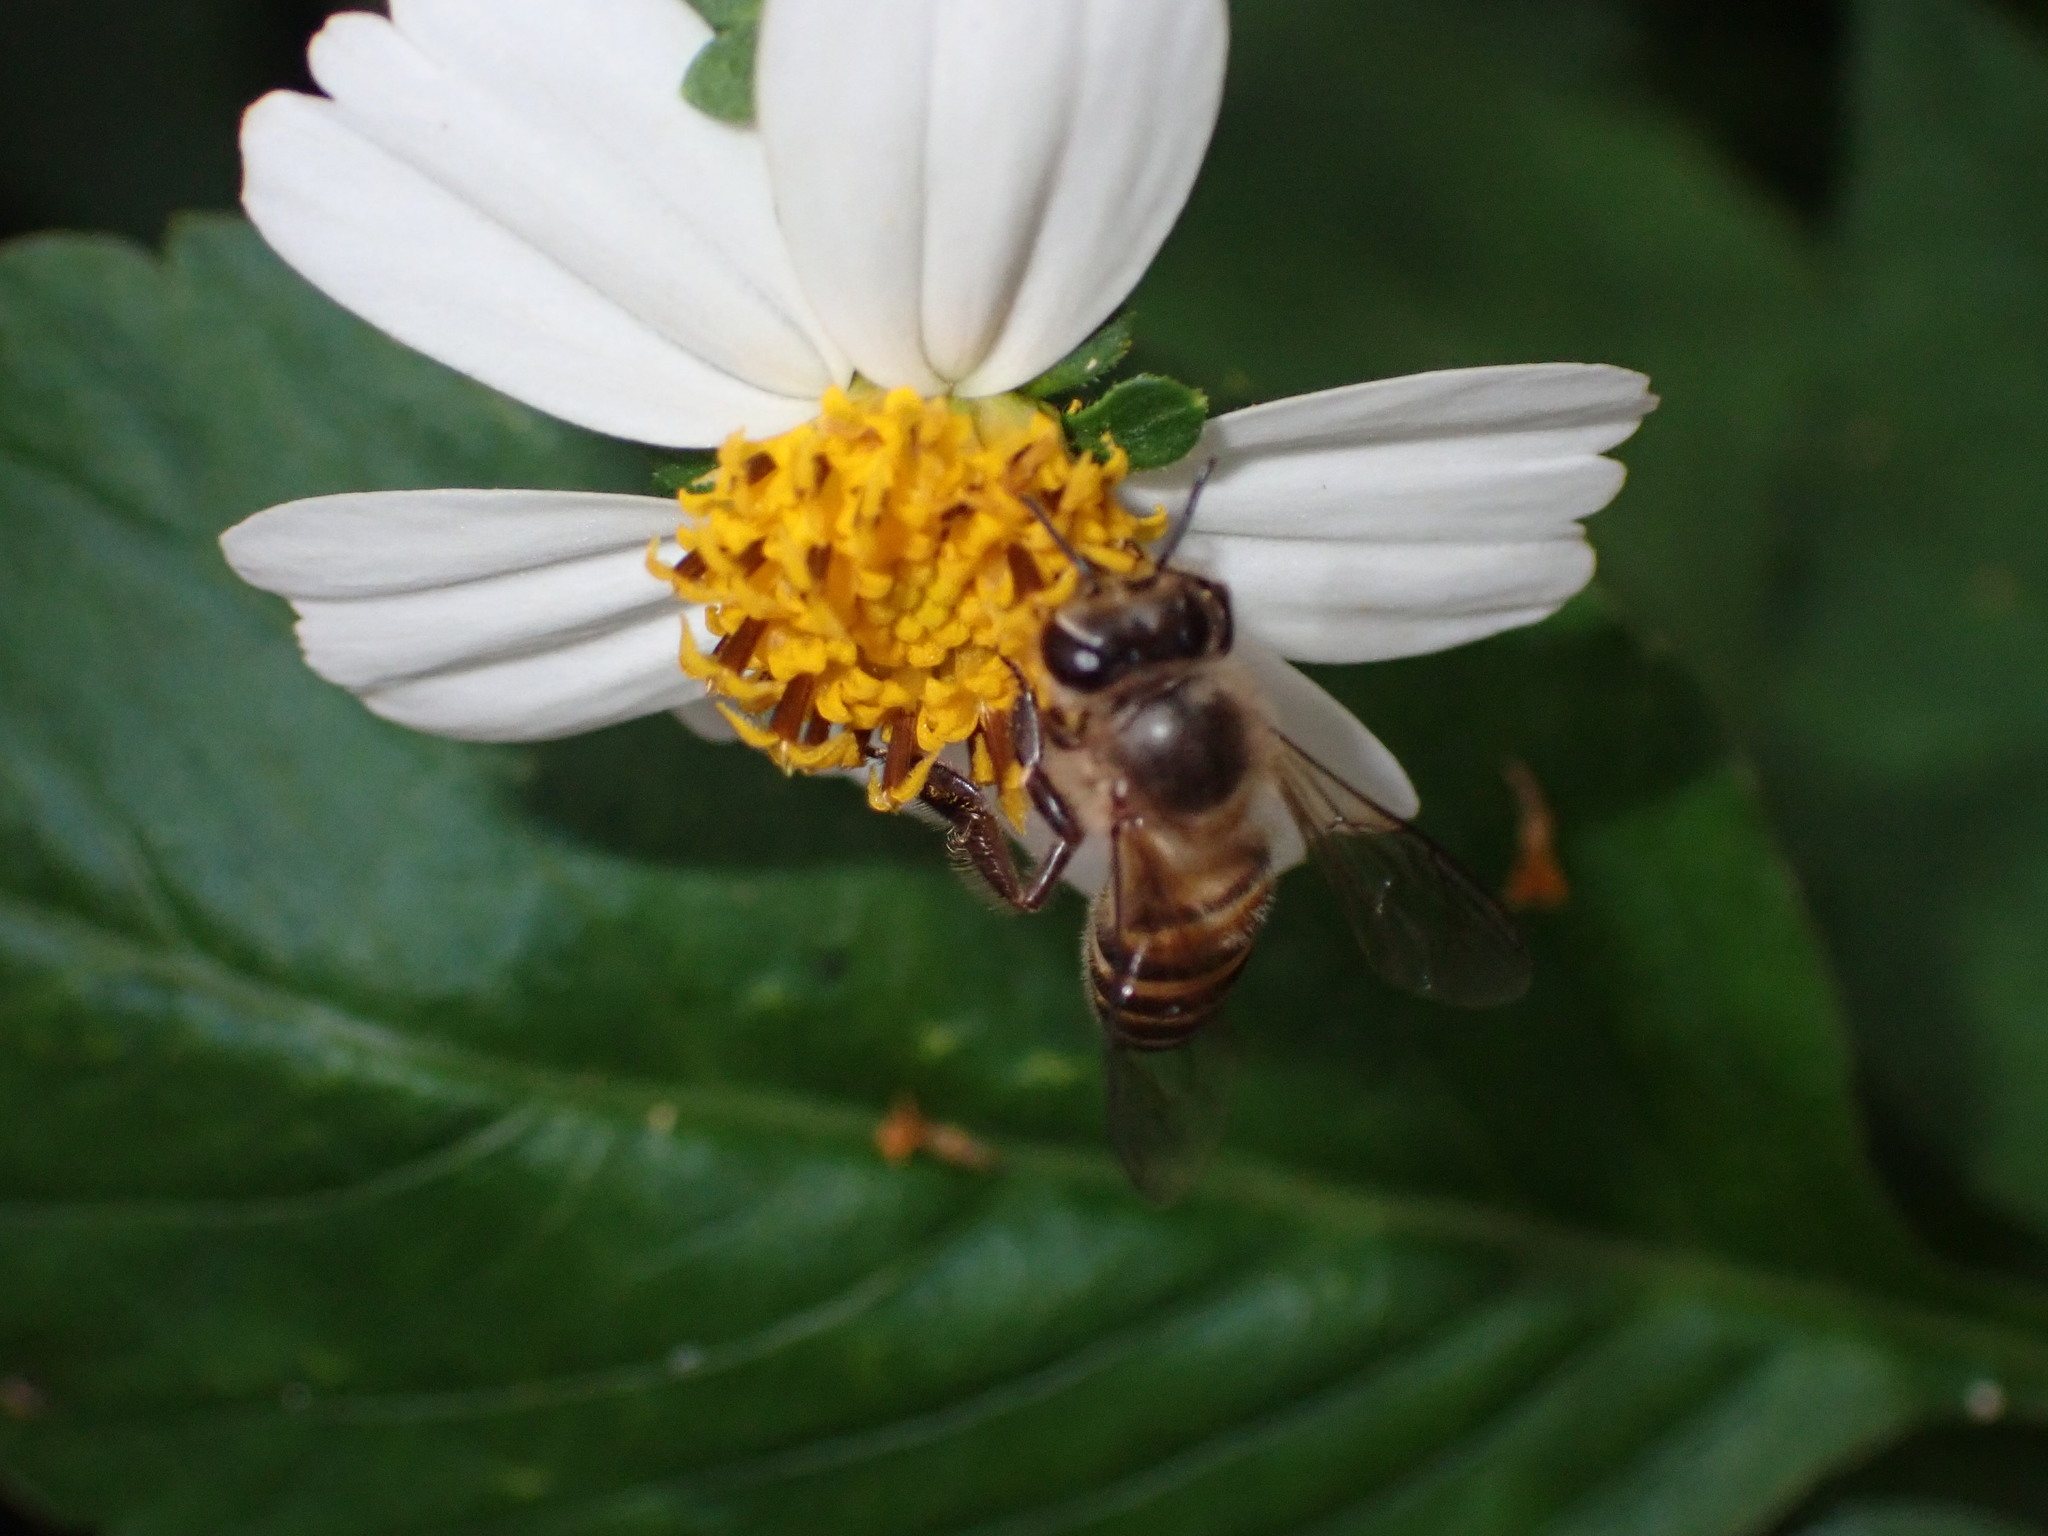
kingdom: Animalia
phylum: Arthropoda
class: Insecta
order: Hymenoptera
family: Apidae
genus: Apis
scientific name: Apis cerana
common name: Honey bee
